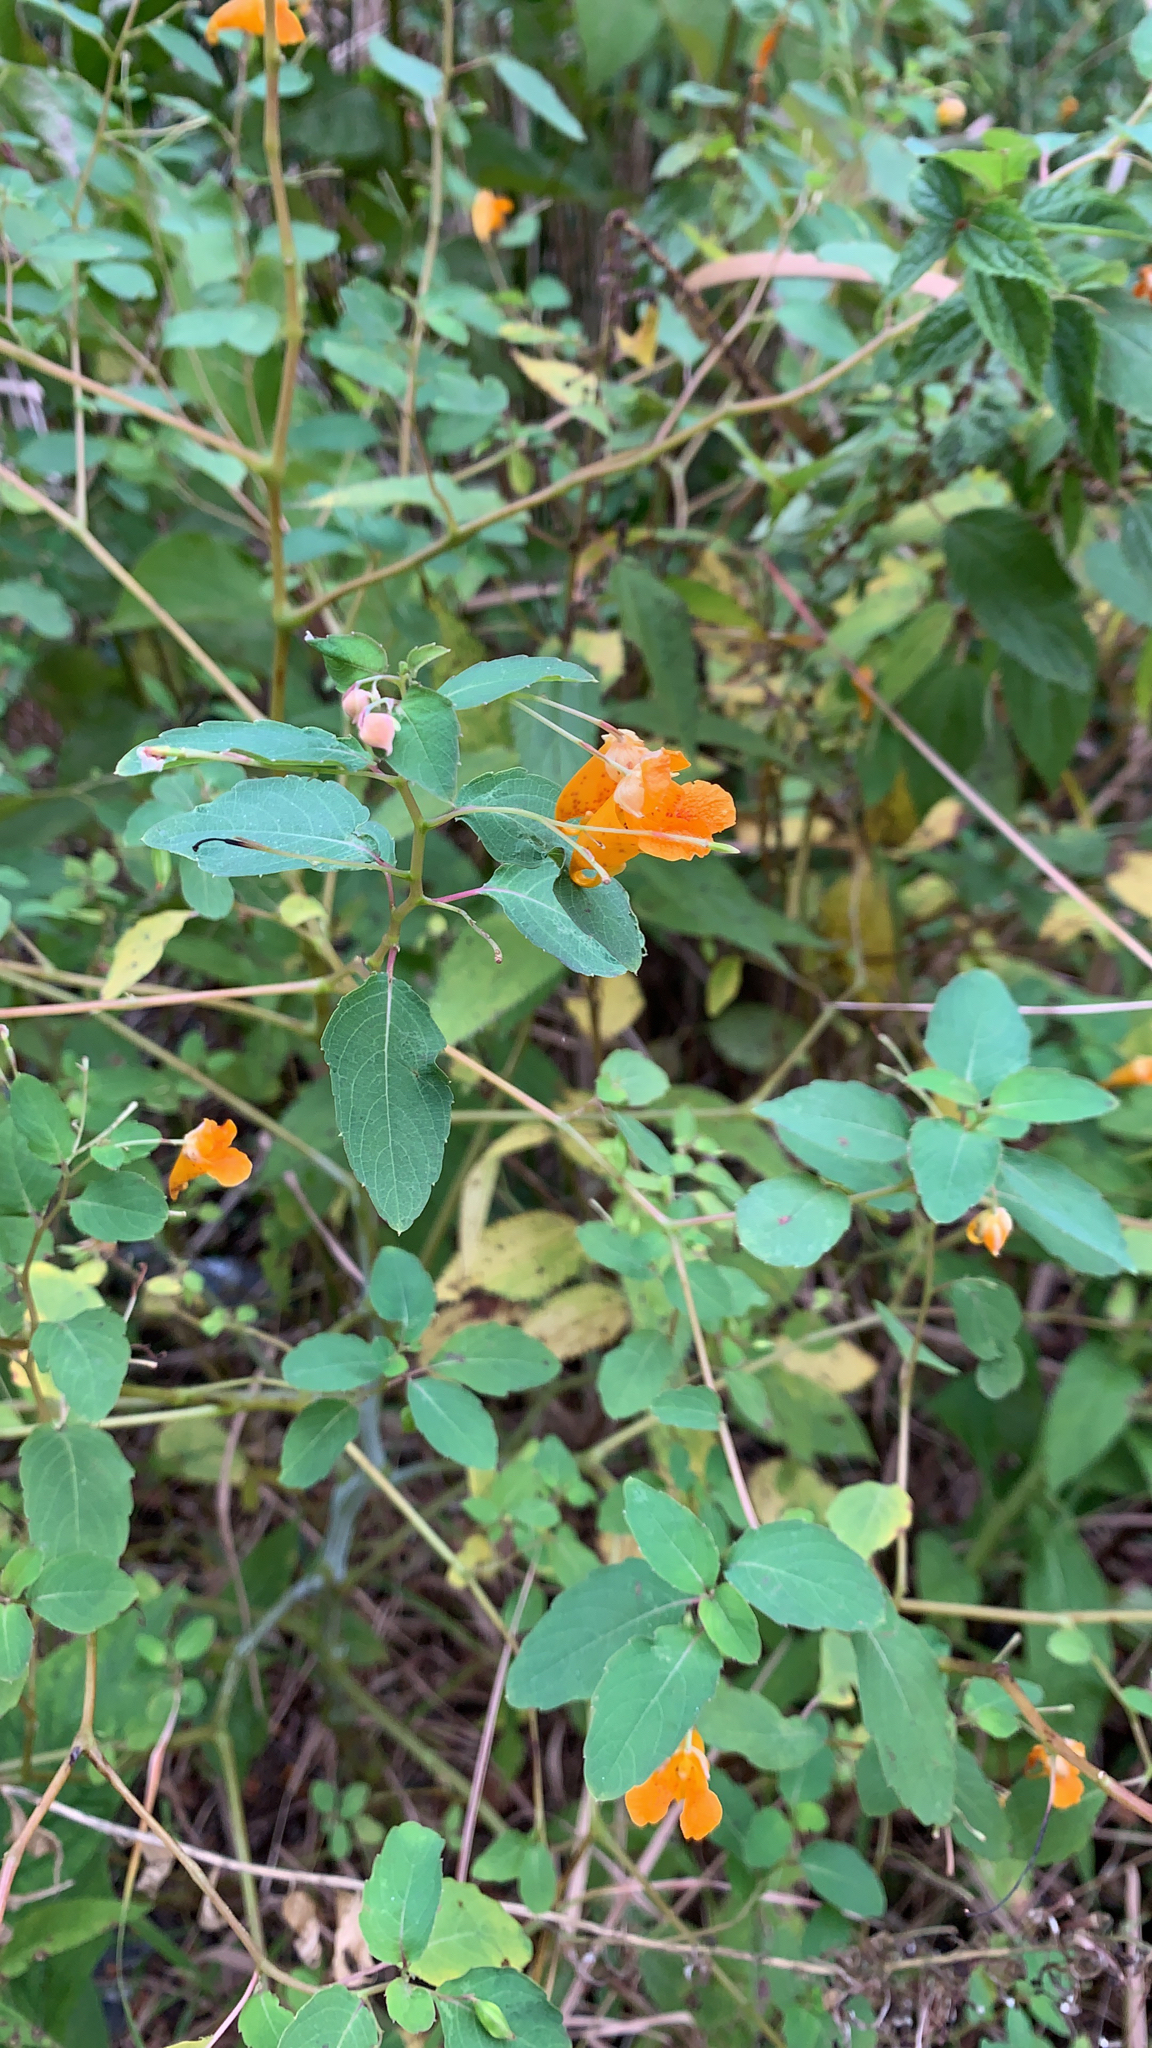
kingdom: Plantae
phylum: Tracheophyta
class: Magnoliopsida
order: Ericales
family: Balsaminaceae
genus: Impatiens
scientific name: Impatiens capensis
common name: Orange balsam
